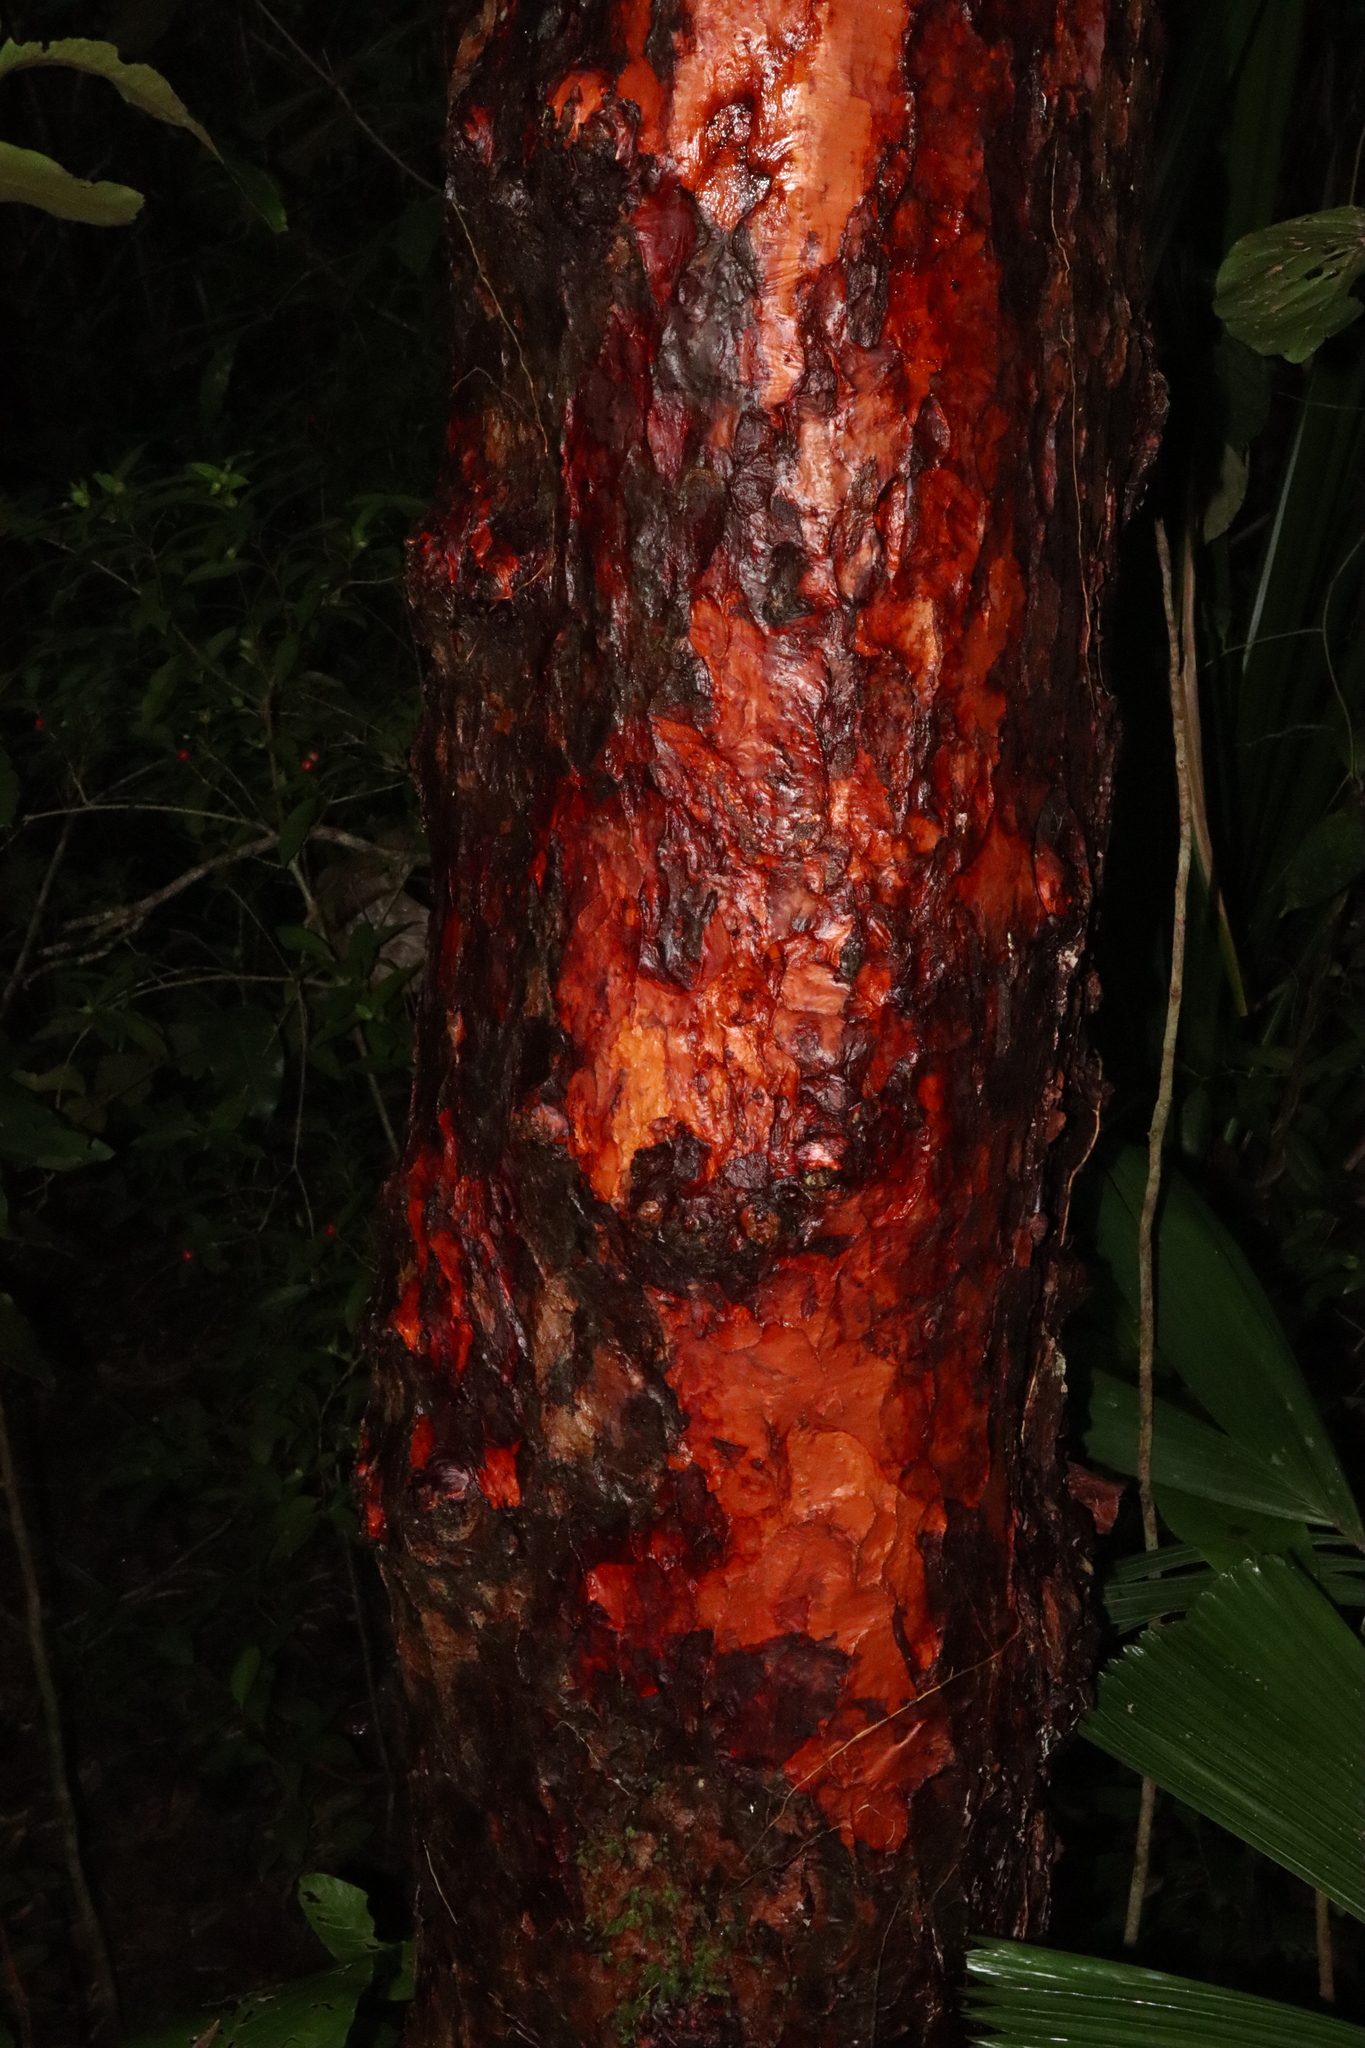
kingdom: Plantae
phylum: Tracheophyta
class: Magnoliopsida
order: Dilleniales
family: Dilleniaceae
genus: Dillenia
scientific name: Dillenia alata
